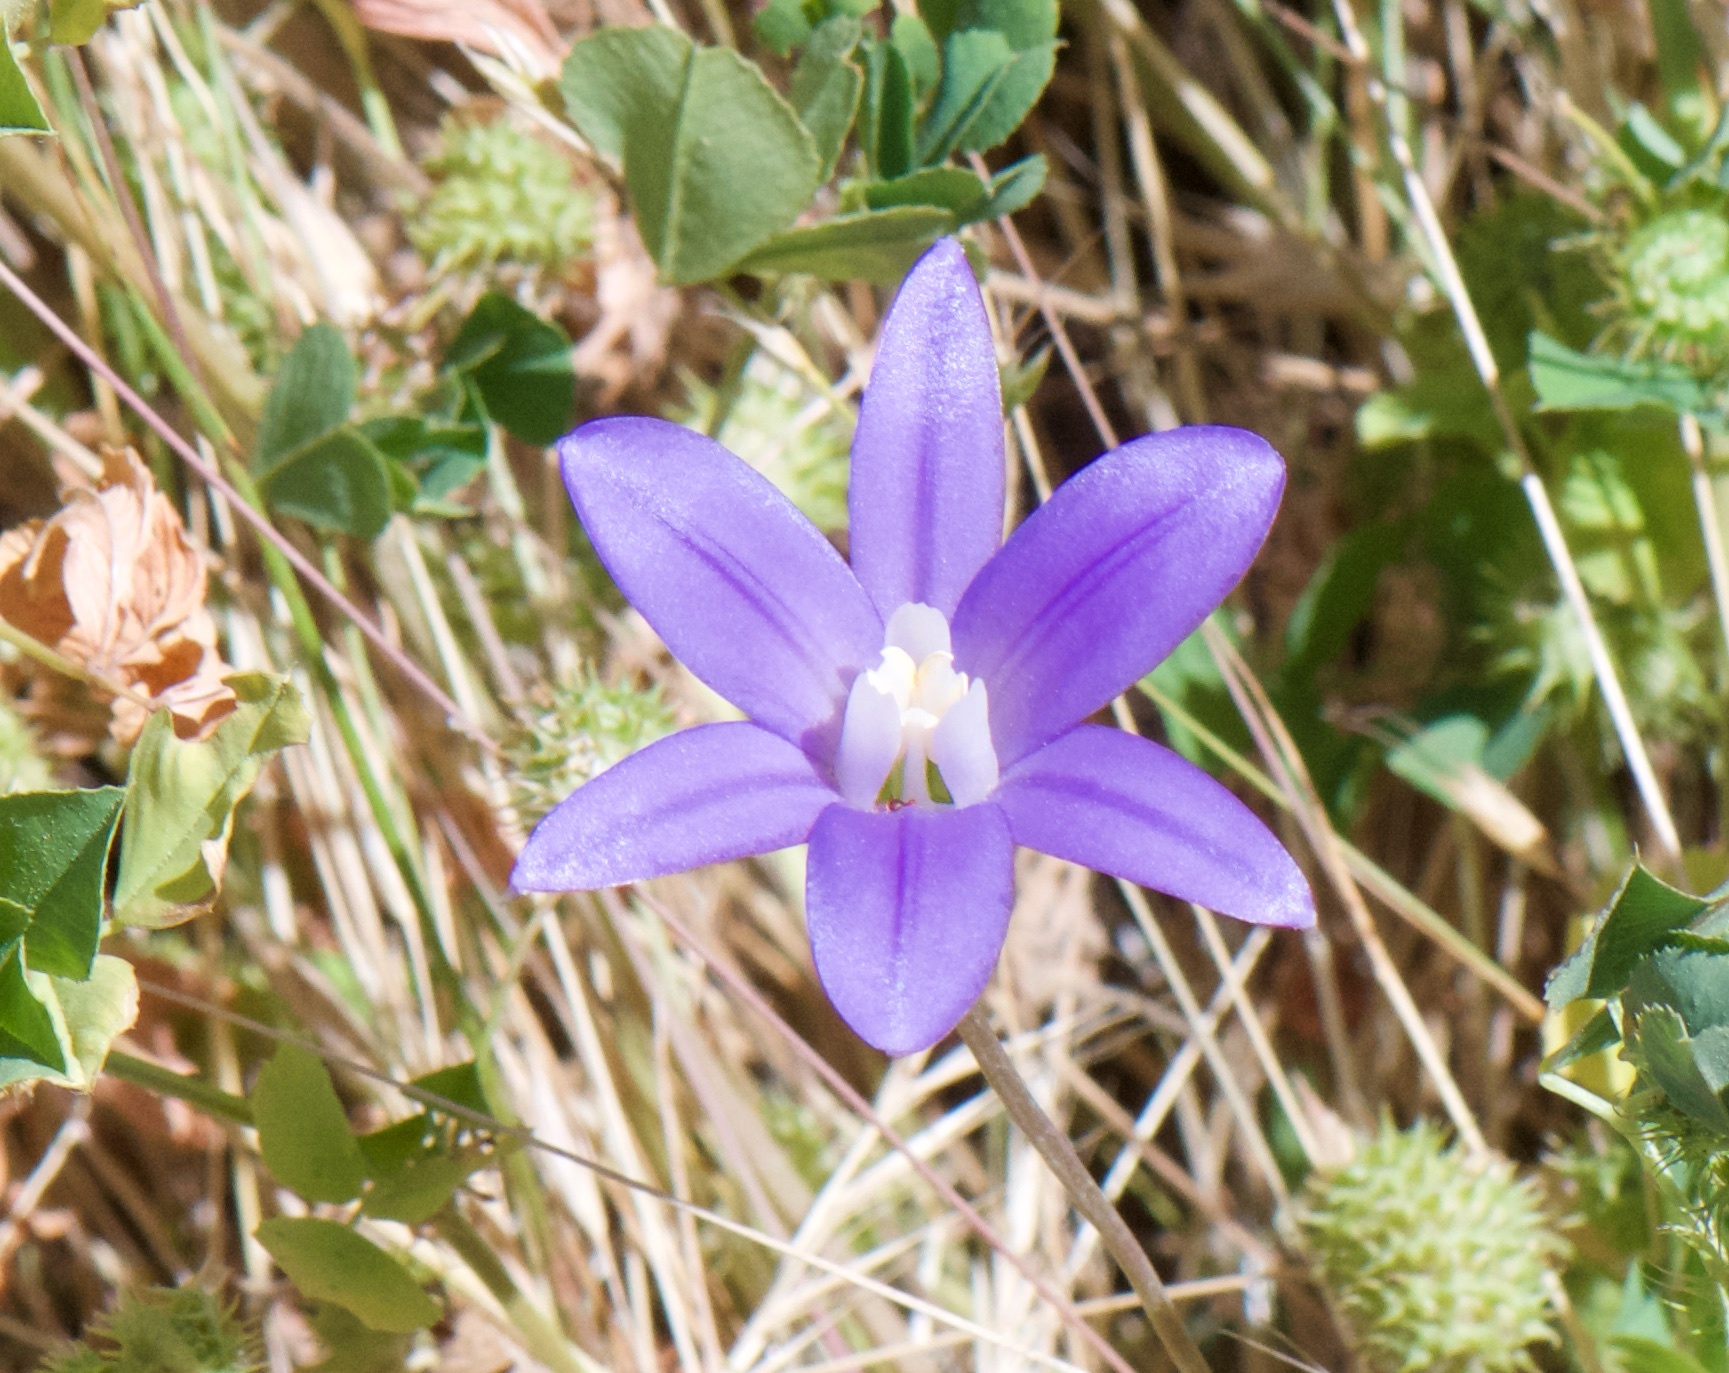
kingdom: Plantae
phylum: Tracheophyta
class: Liliopsida
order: Asparagales
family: Asparagaceae
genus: Brodiaea
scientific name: Brodiaea terrestris
